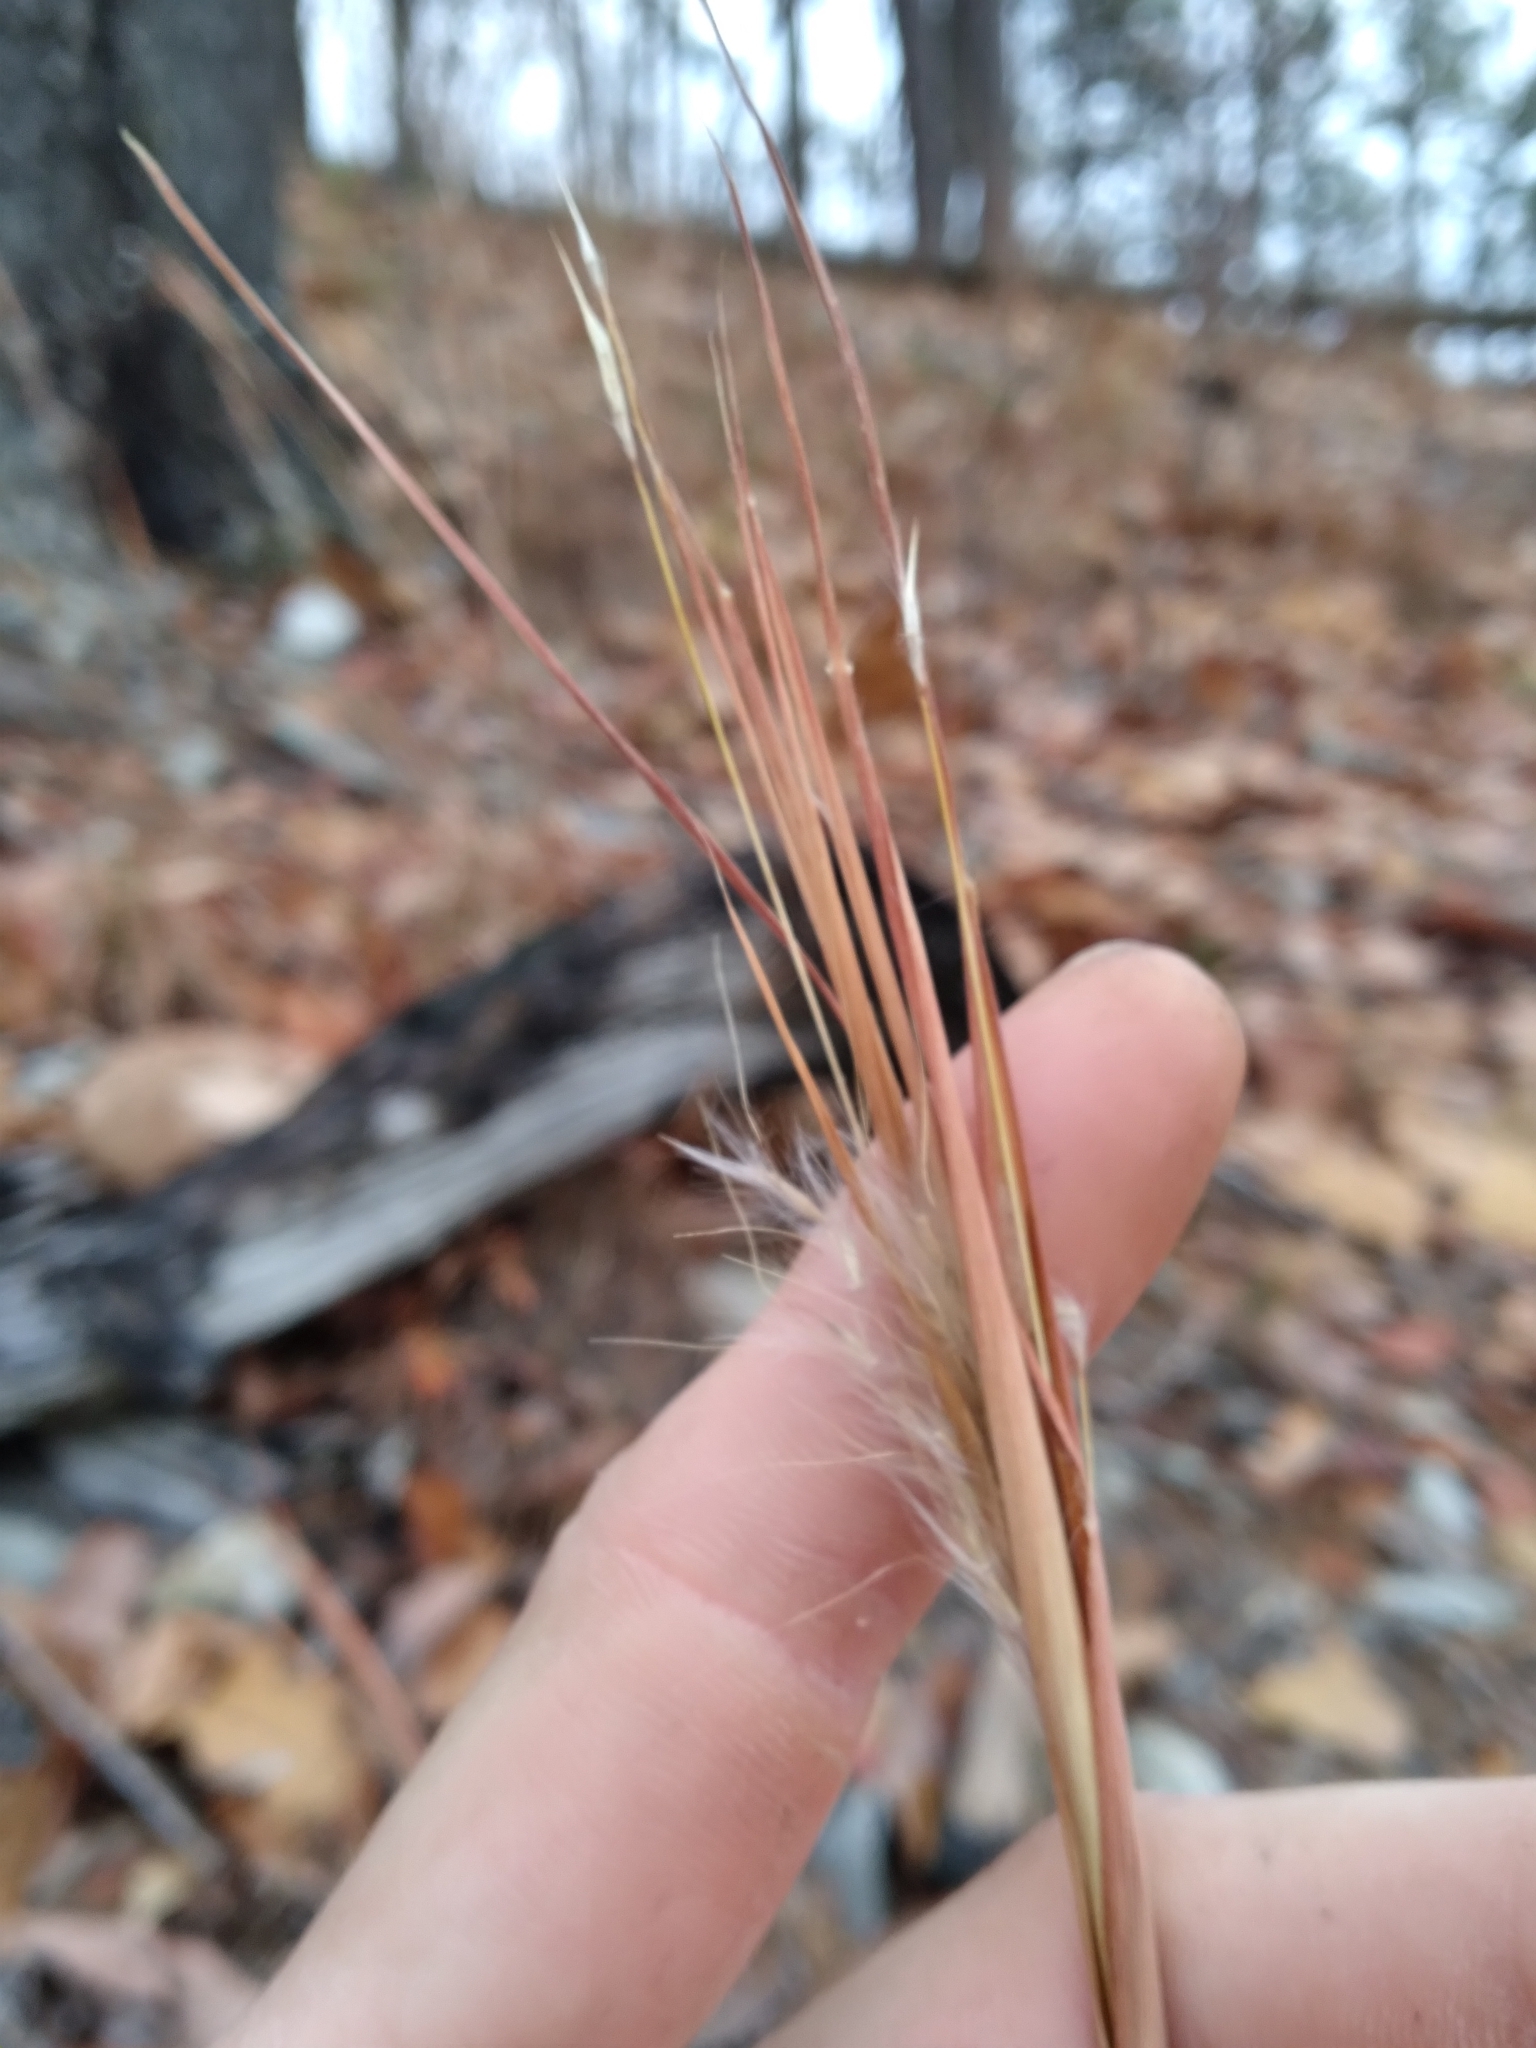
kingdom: Plantae
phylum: Tracheophyta
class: Liliopsida
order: Poales
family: Poaceae
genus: Andropogon
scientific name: Andropogon gyrans
